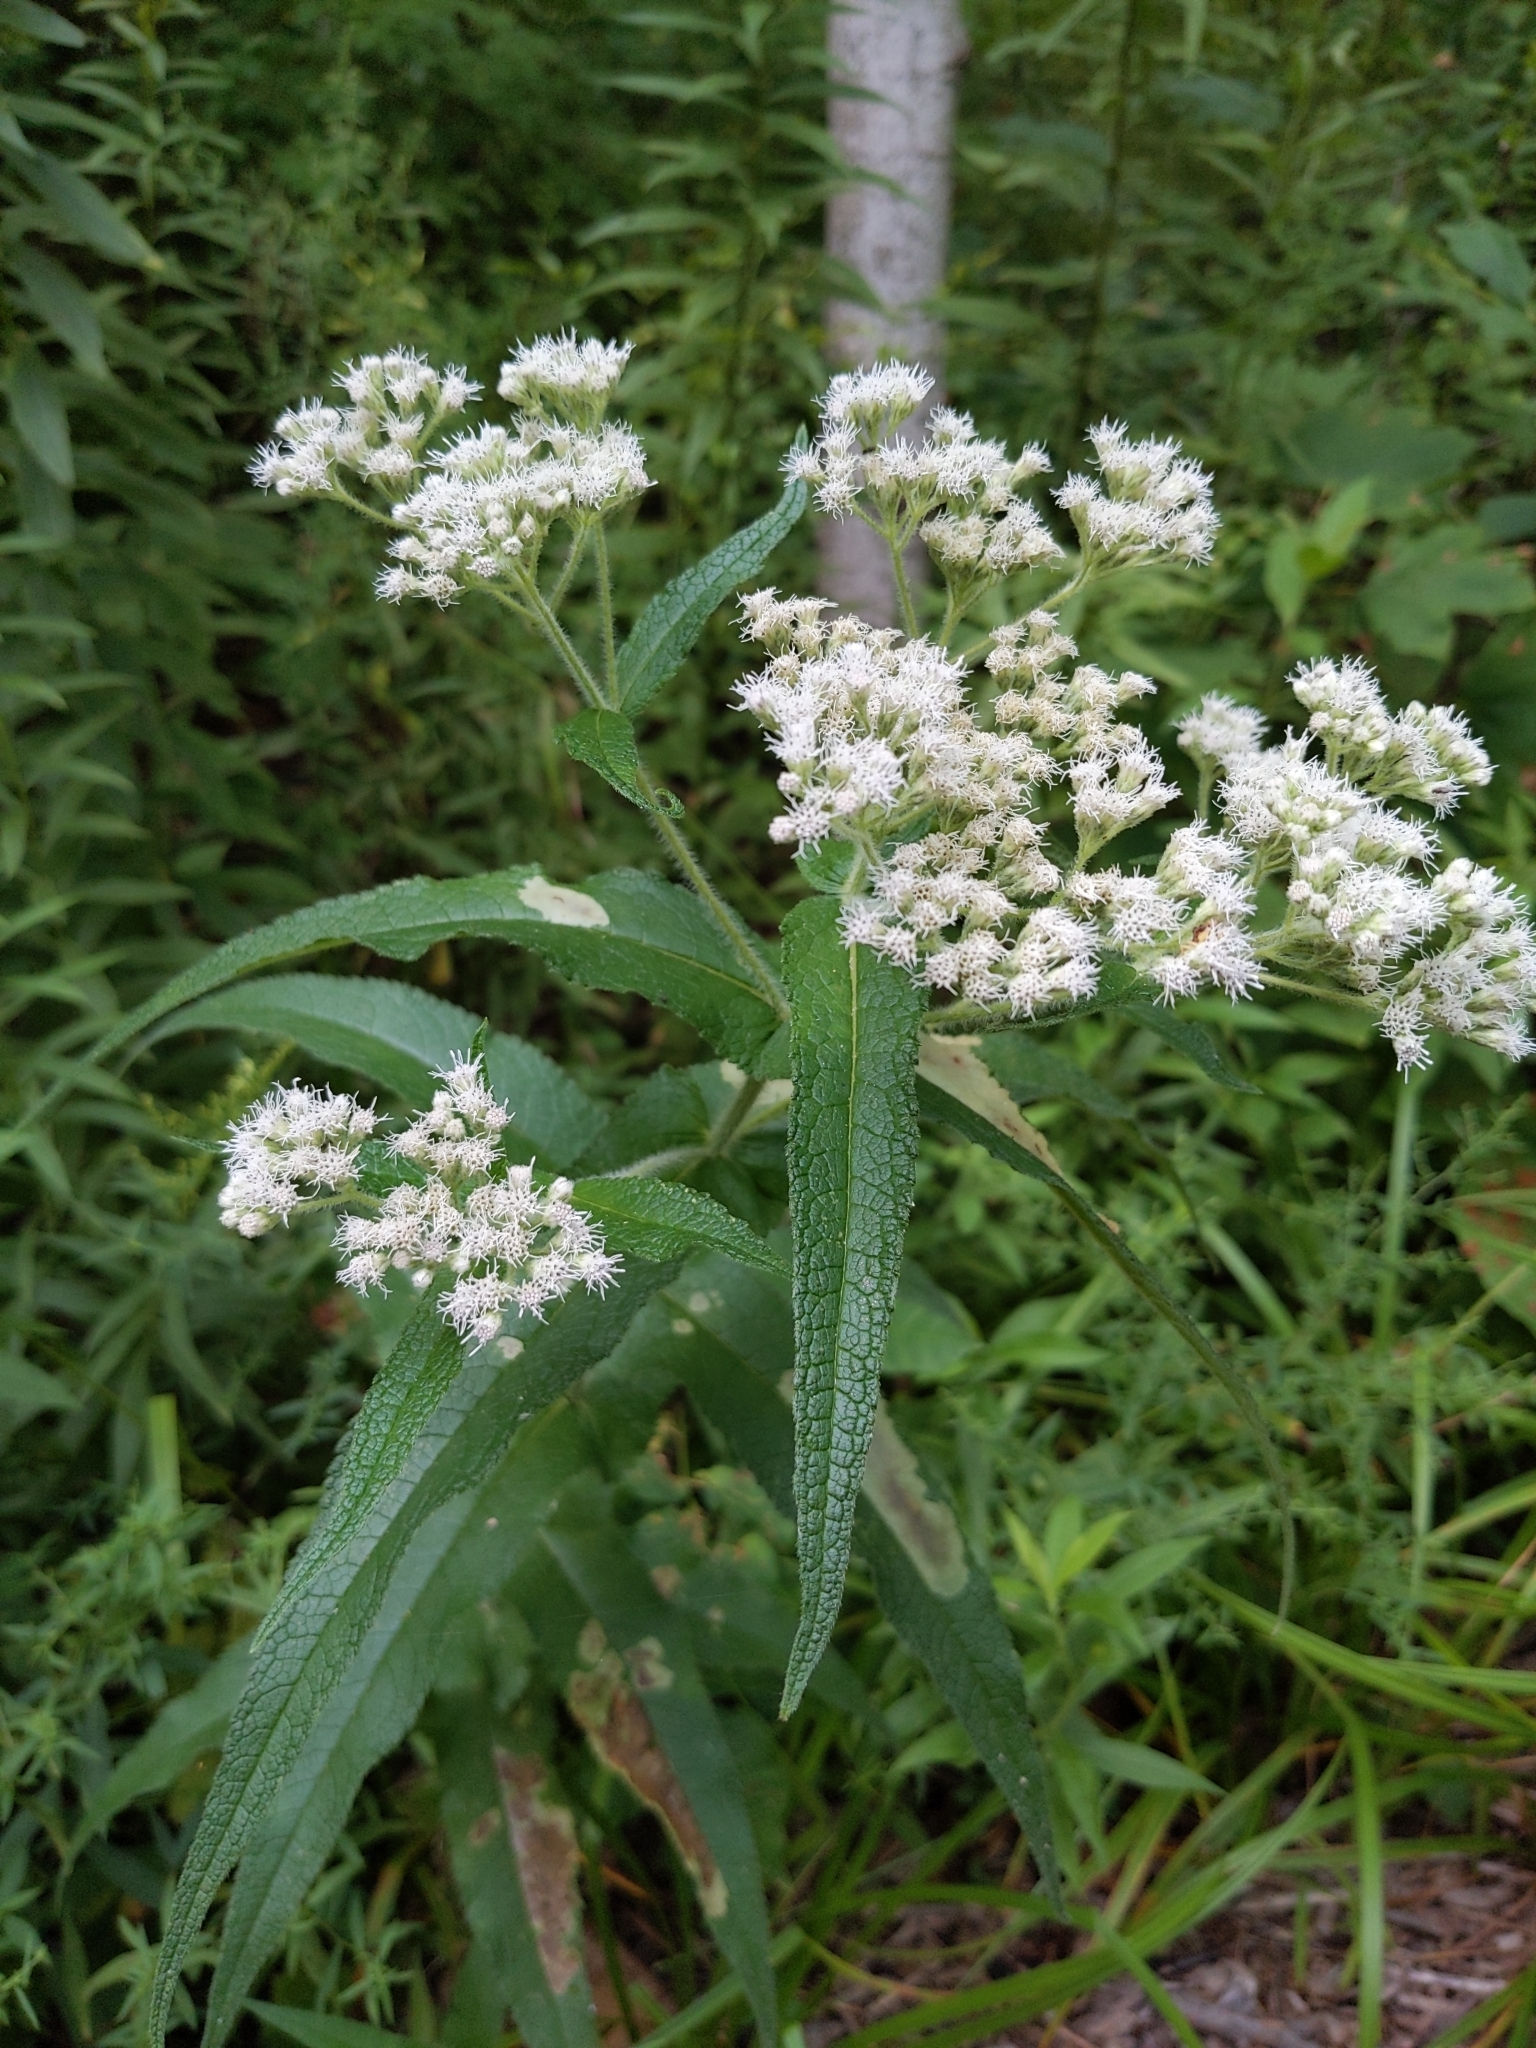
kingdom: Plantae
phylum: Tracheophyta
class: Magnoliopsida
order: Asterales
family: Asteraceae
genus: Eupatorium
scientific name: Eupatorium perfoliatum
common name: Boneset
